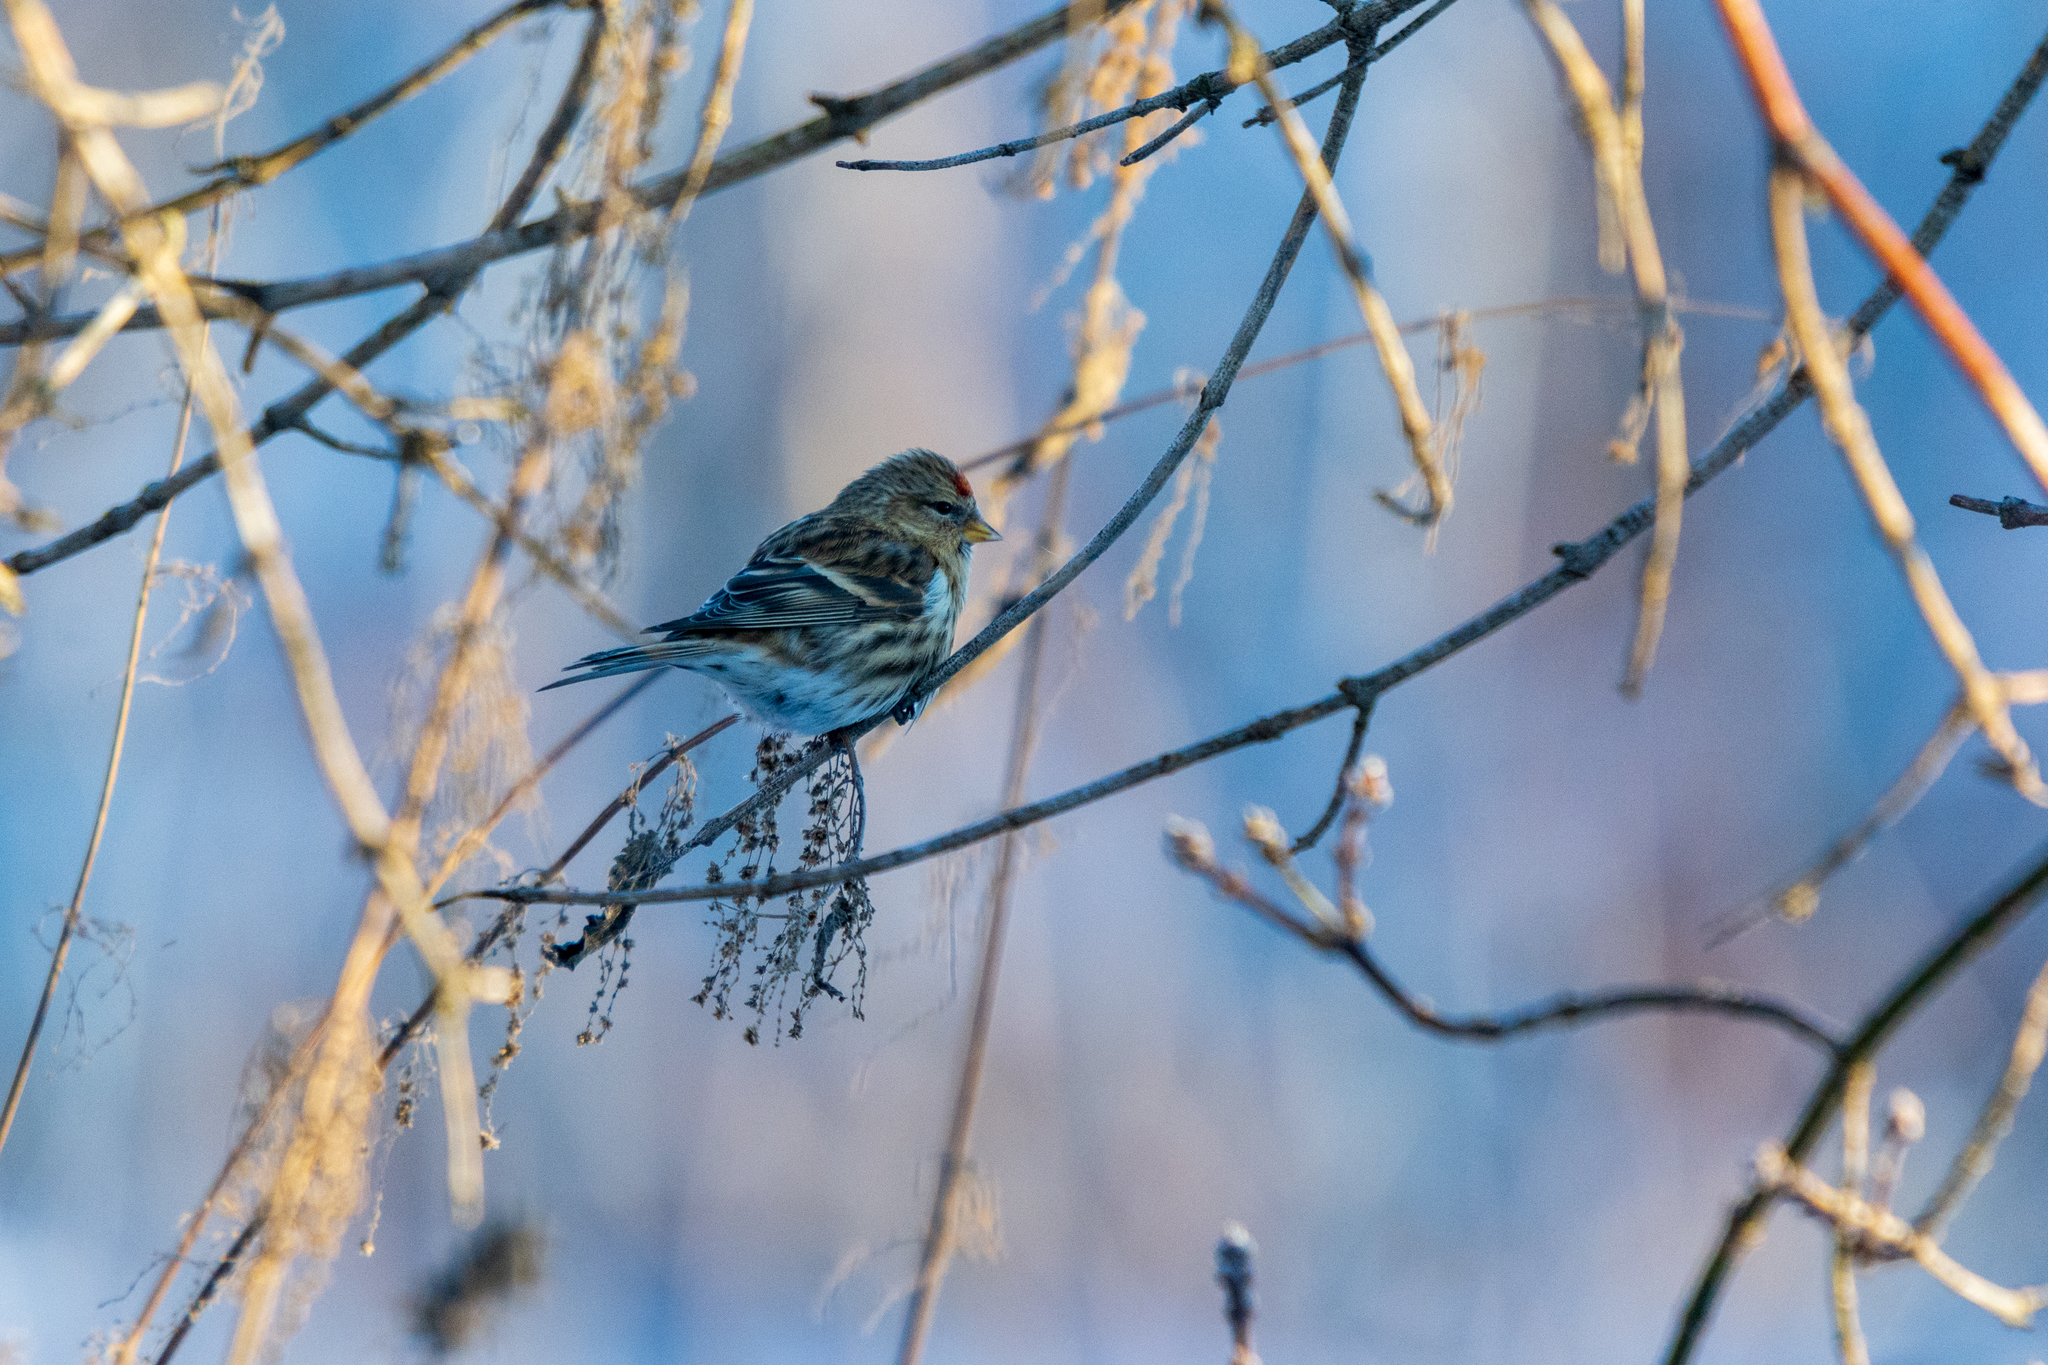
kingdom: Animalia
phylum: Chordata
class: Aves
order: Passeriformes
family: Fringillidae
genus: Acanthis
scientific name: Acanthis flammea
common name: Common redpoll
